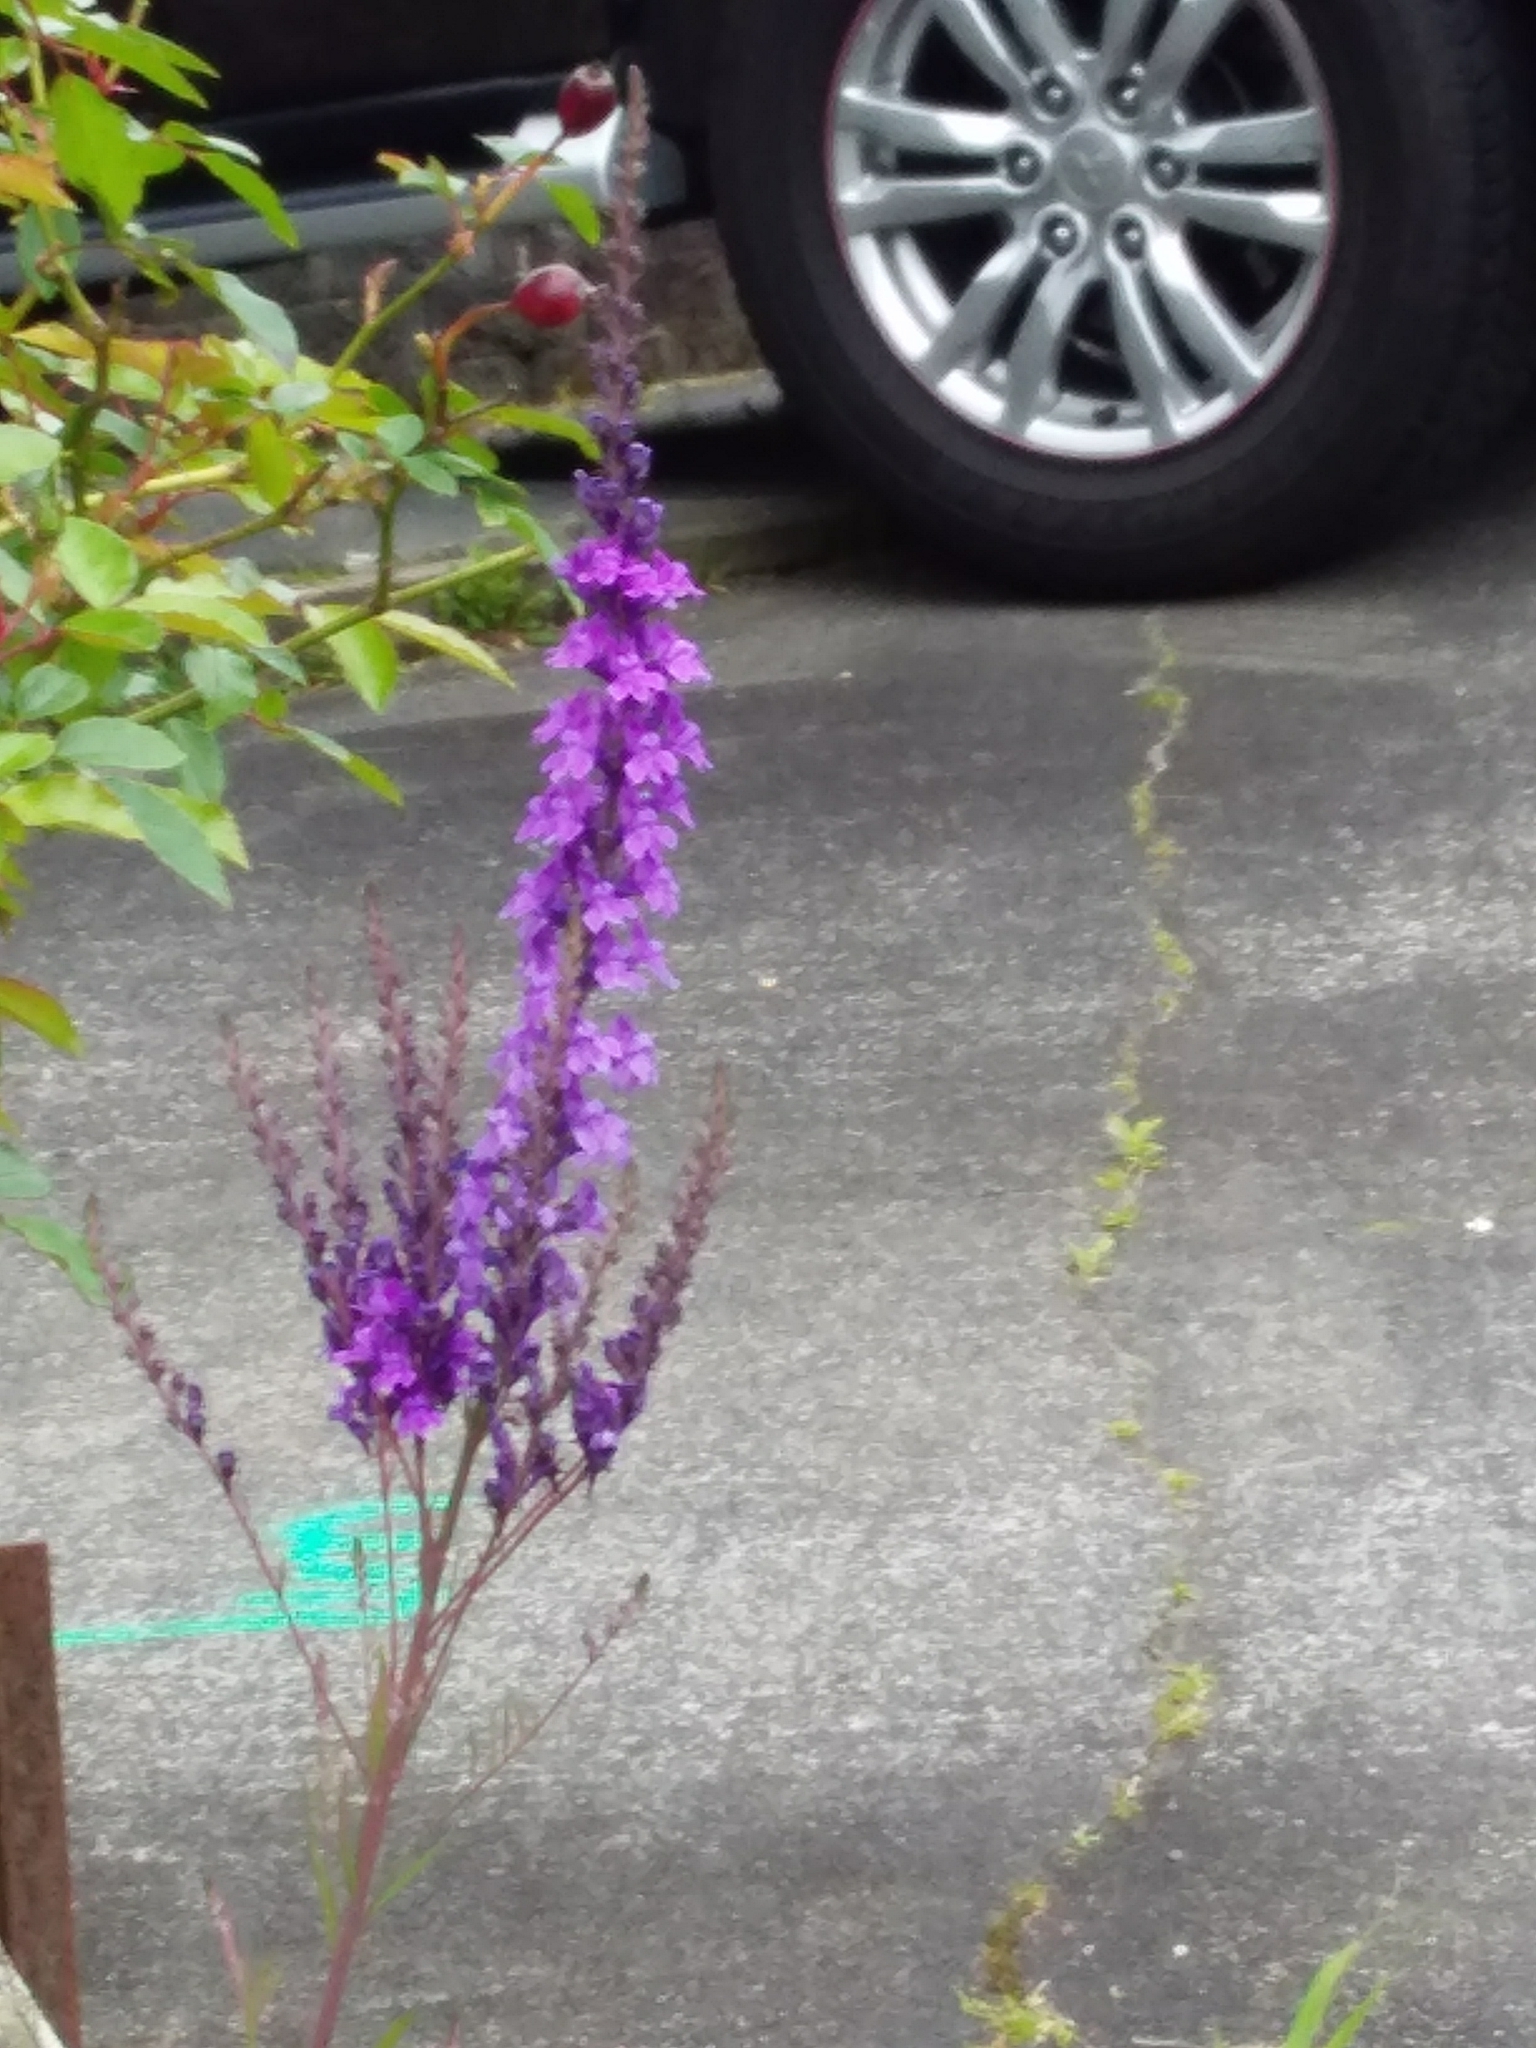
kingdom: Plantae
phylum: Tracheophyta
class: Magnoliopsida
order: Lamiales
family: Plantaginaceae
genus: Linaria
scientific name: Linaria purpurea
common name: Purple toadflax
